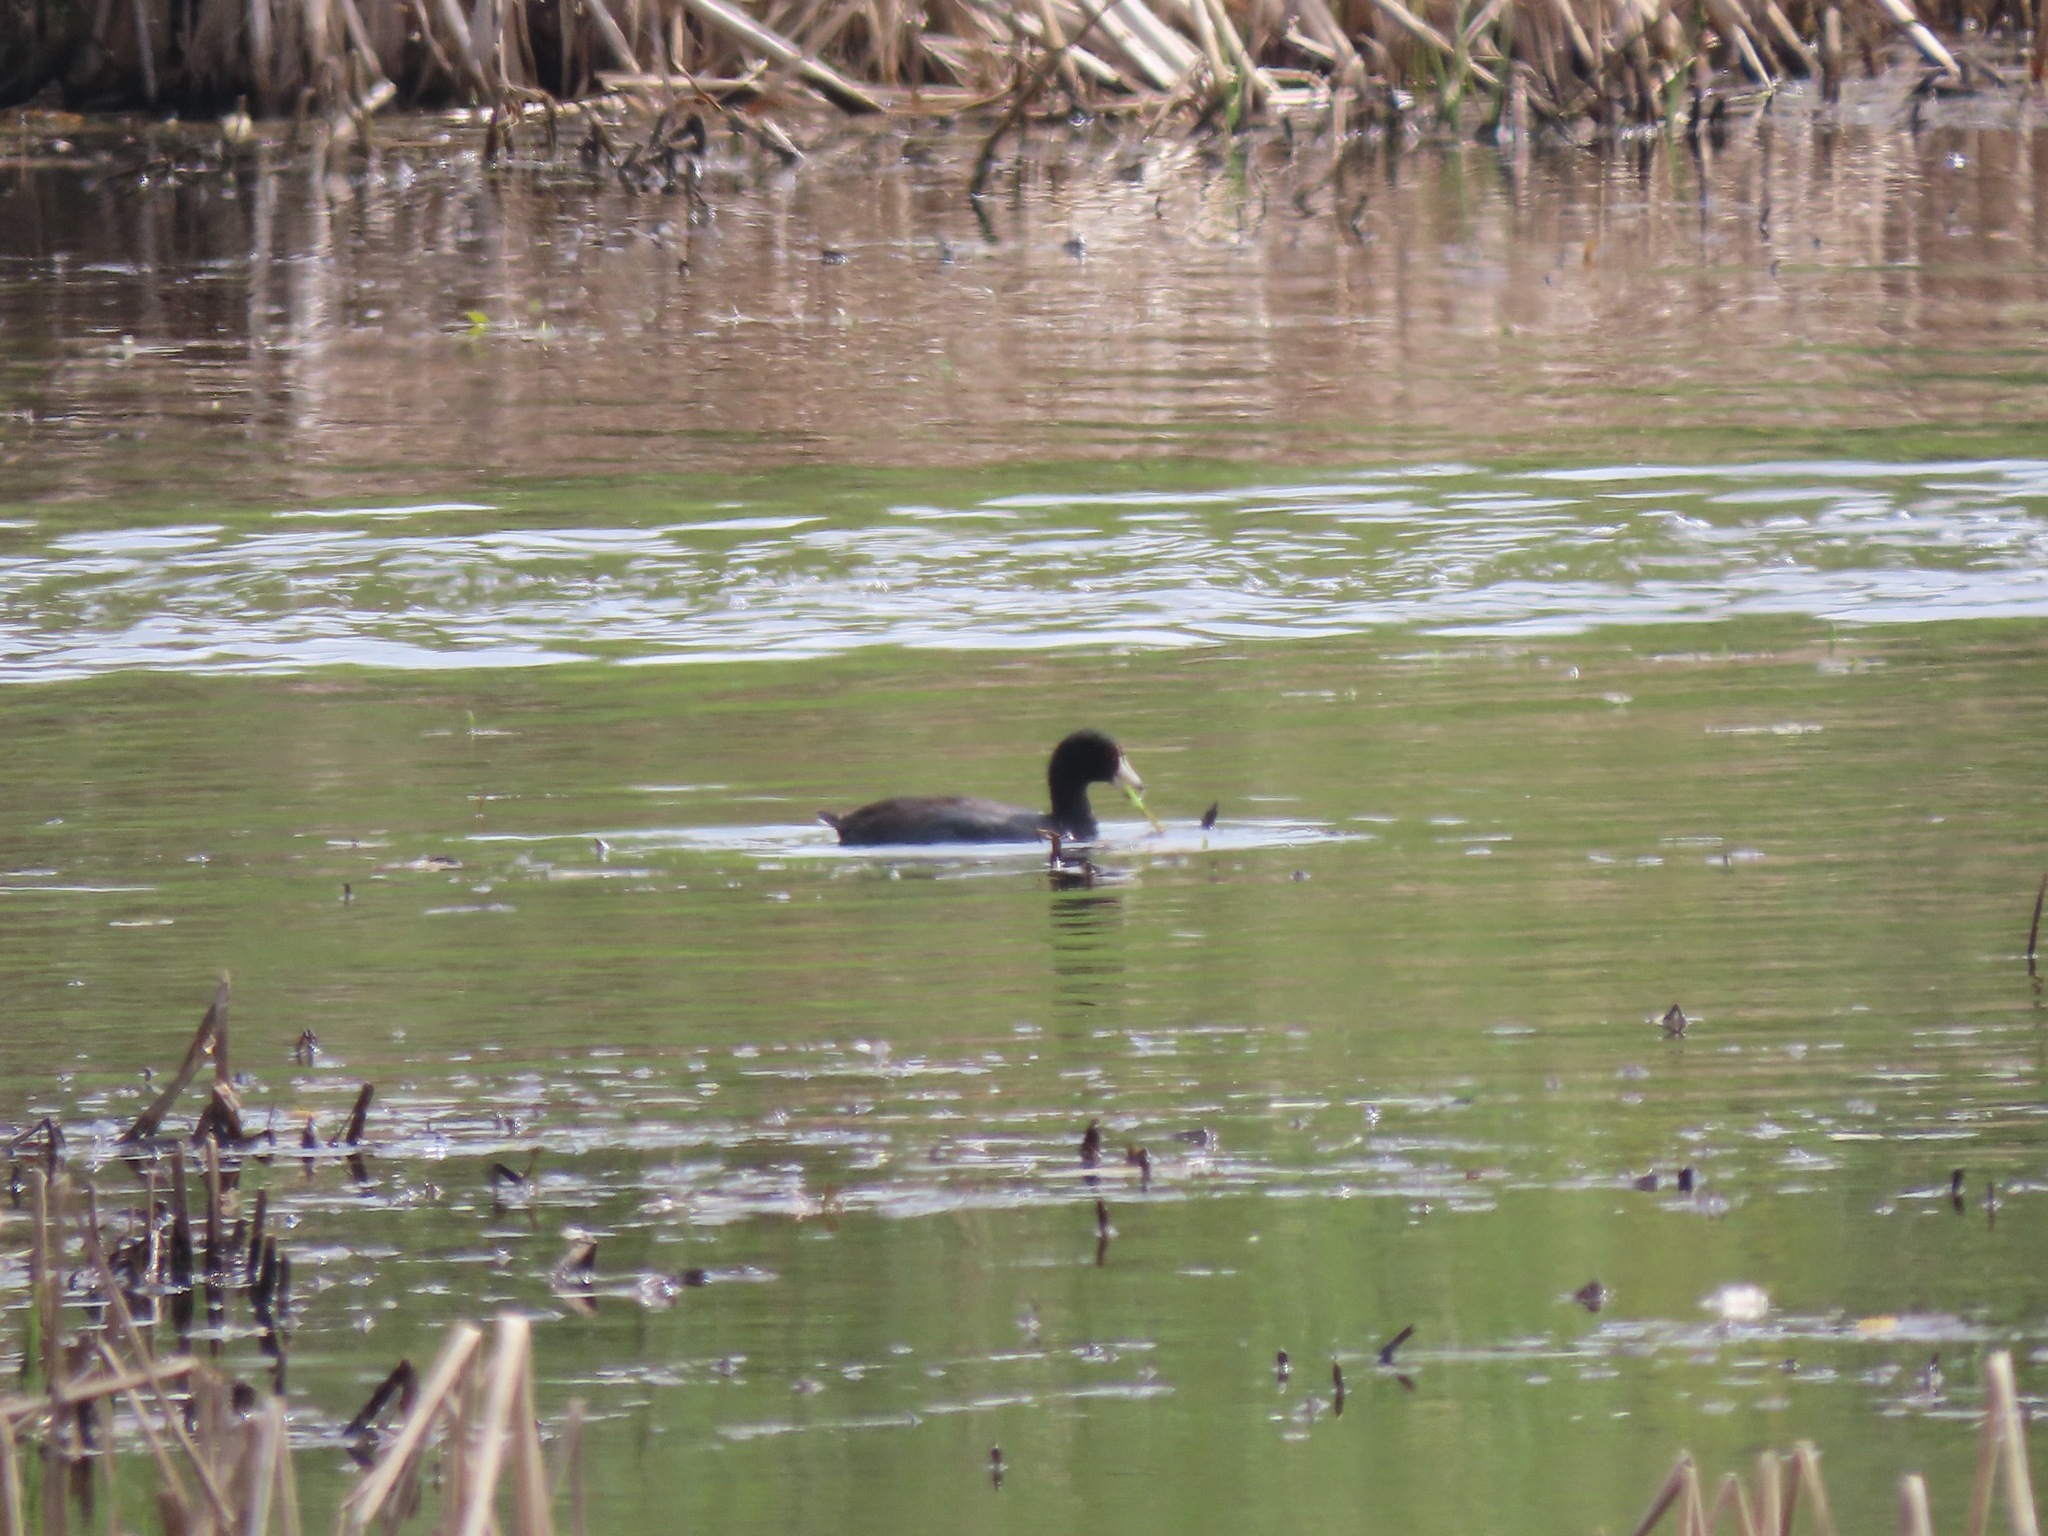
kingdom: Animalia
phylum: Chordata
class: Aves
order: Gruiformes
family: Rallidae
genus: Fulica
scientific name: Fulica americana
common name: American coot
